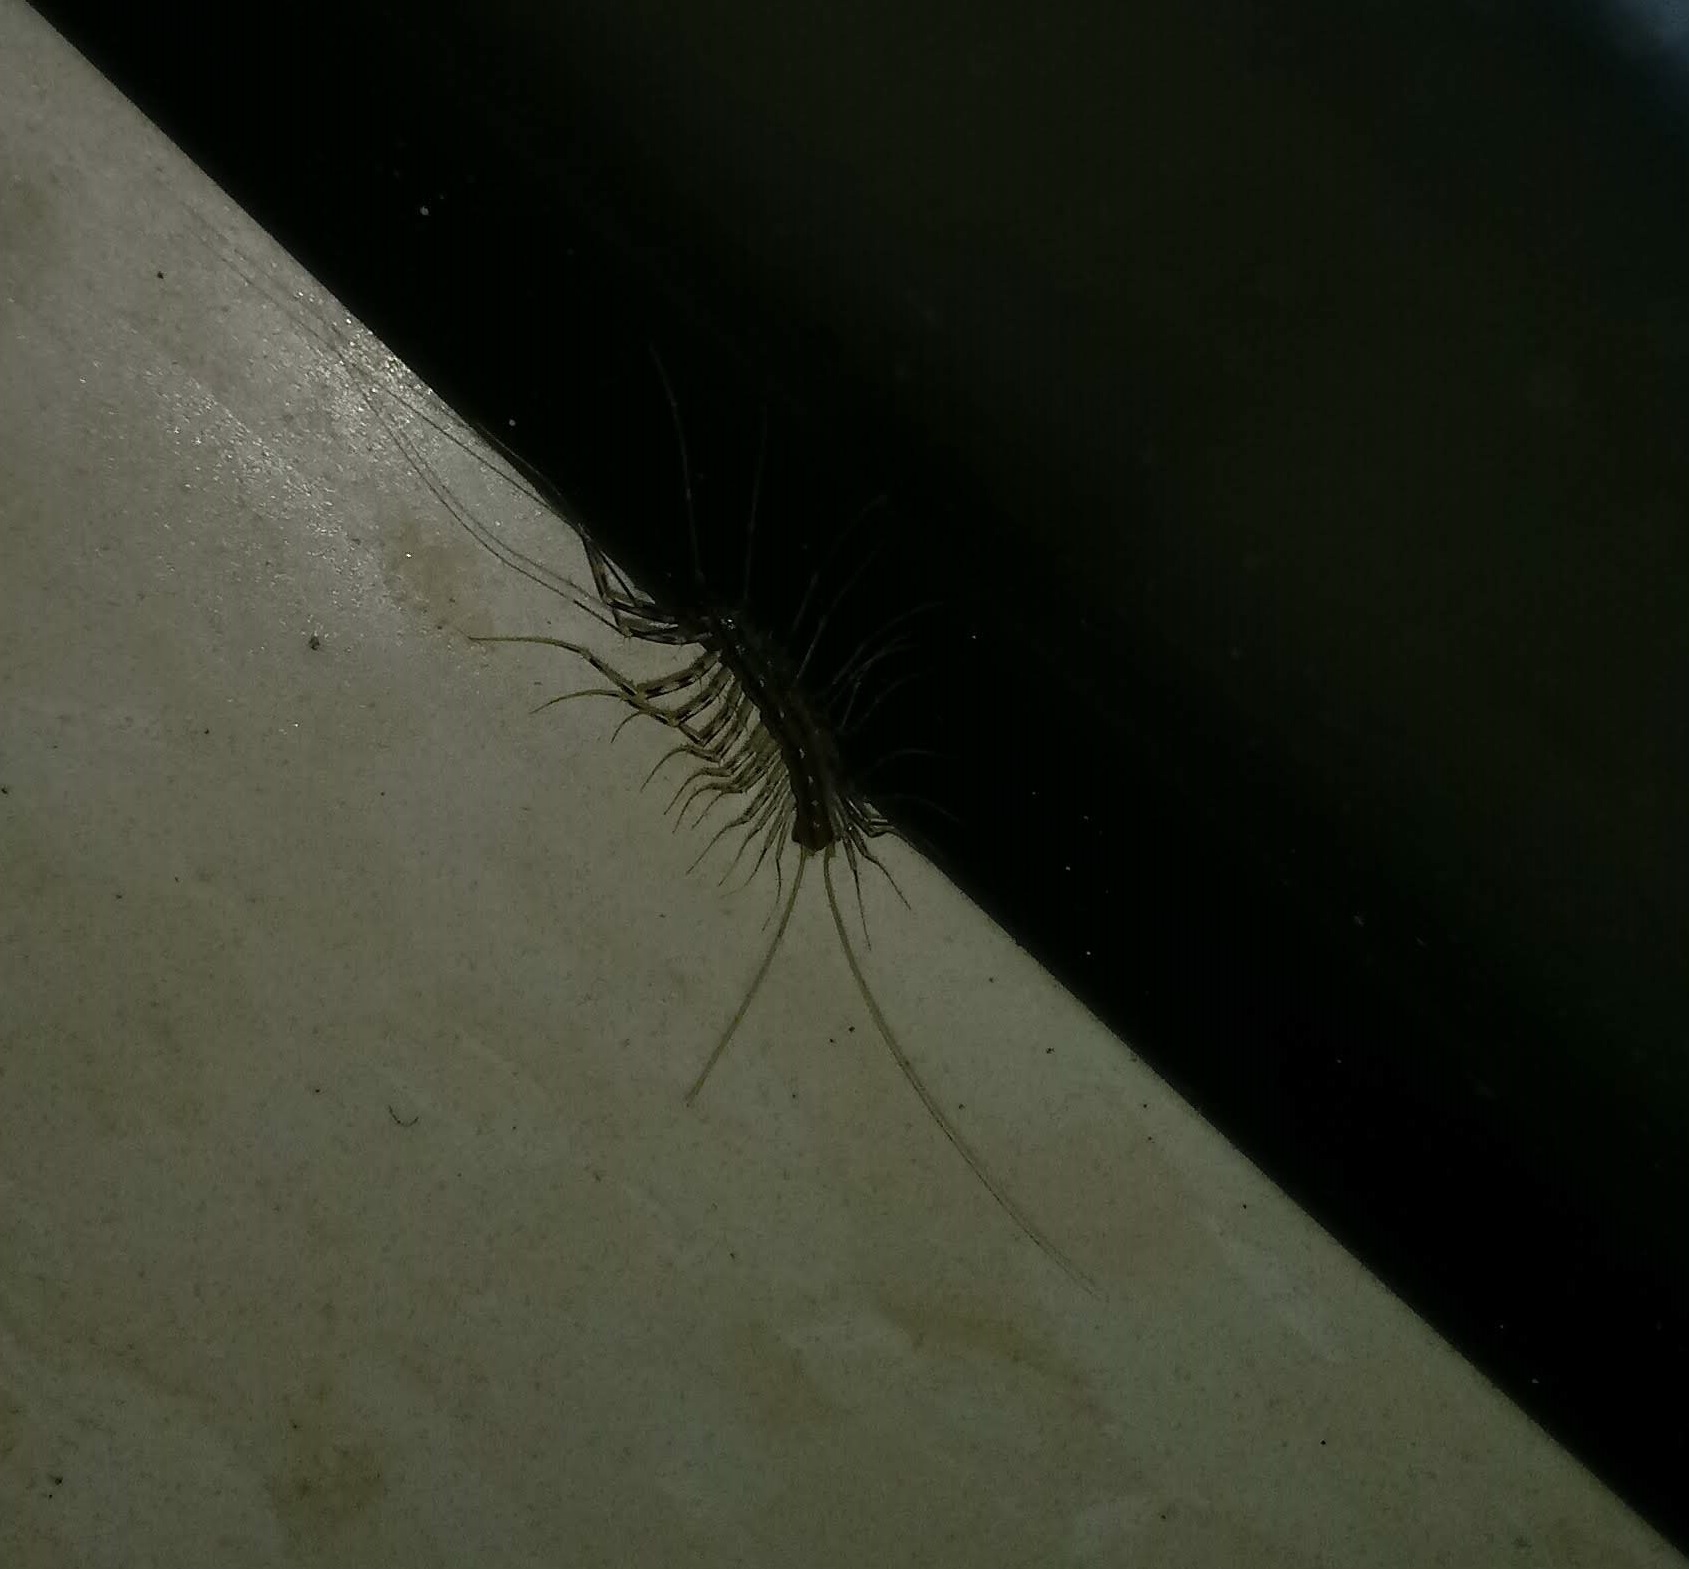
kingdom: Animalia
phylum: Arthropoda
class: Chilopoda
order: Scutigeromorpha
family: Scutigeridae
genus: Scutigera
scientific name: Scutigera coleoptrata
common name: House centipede
